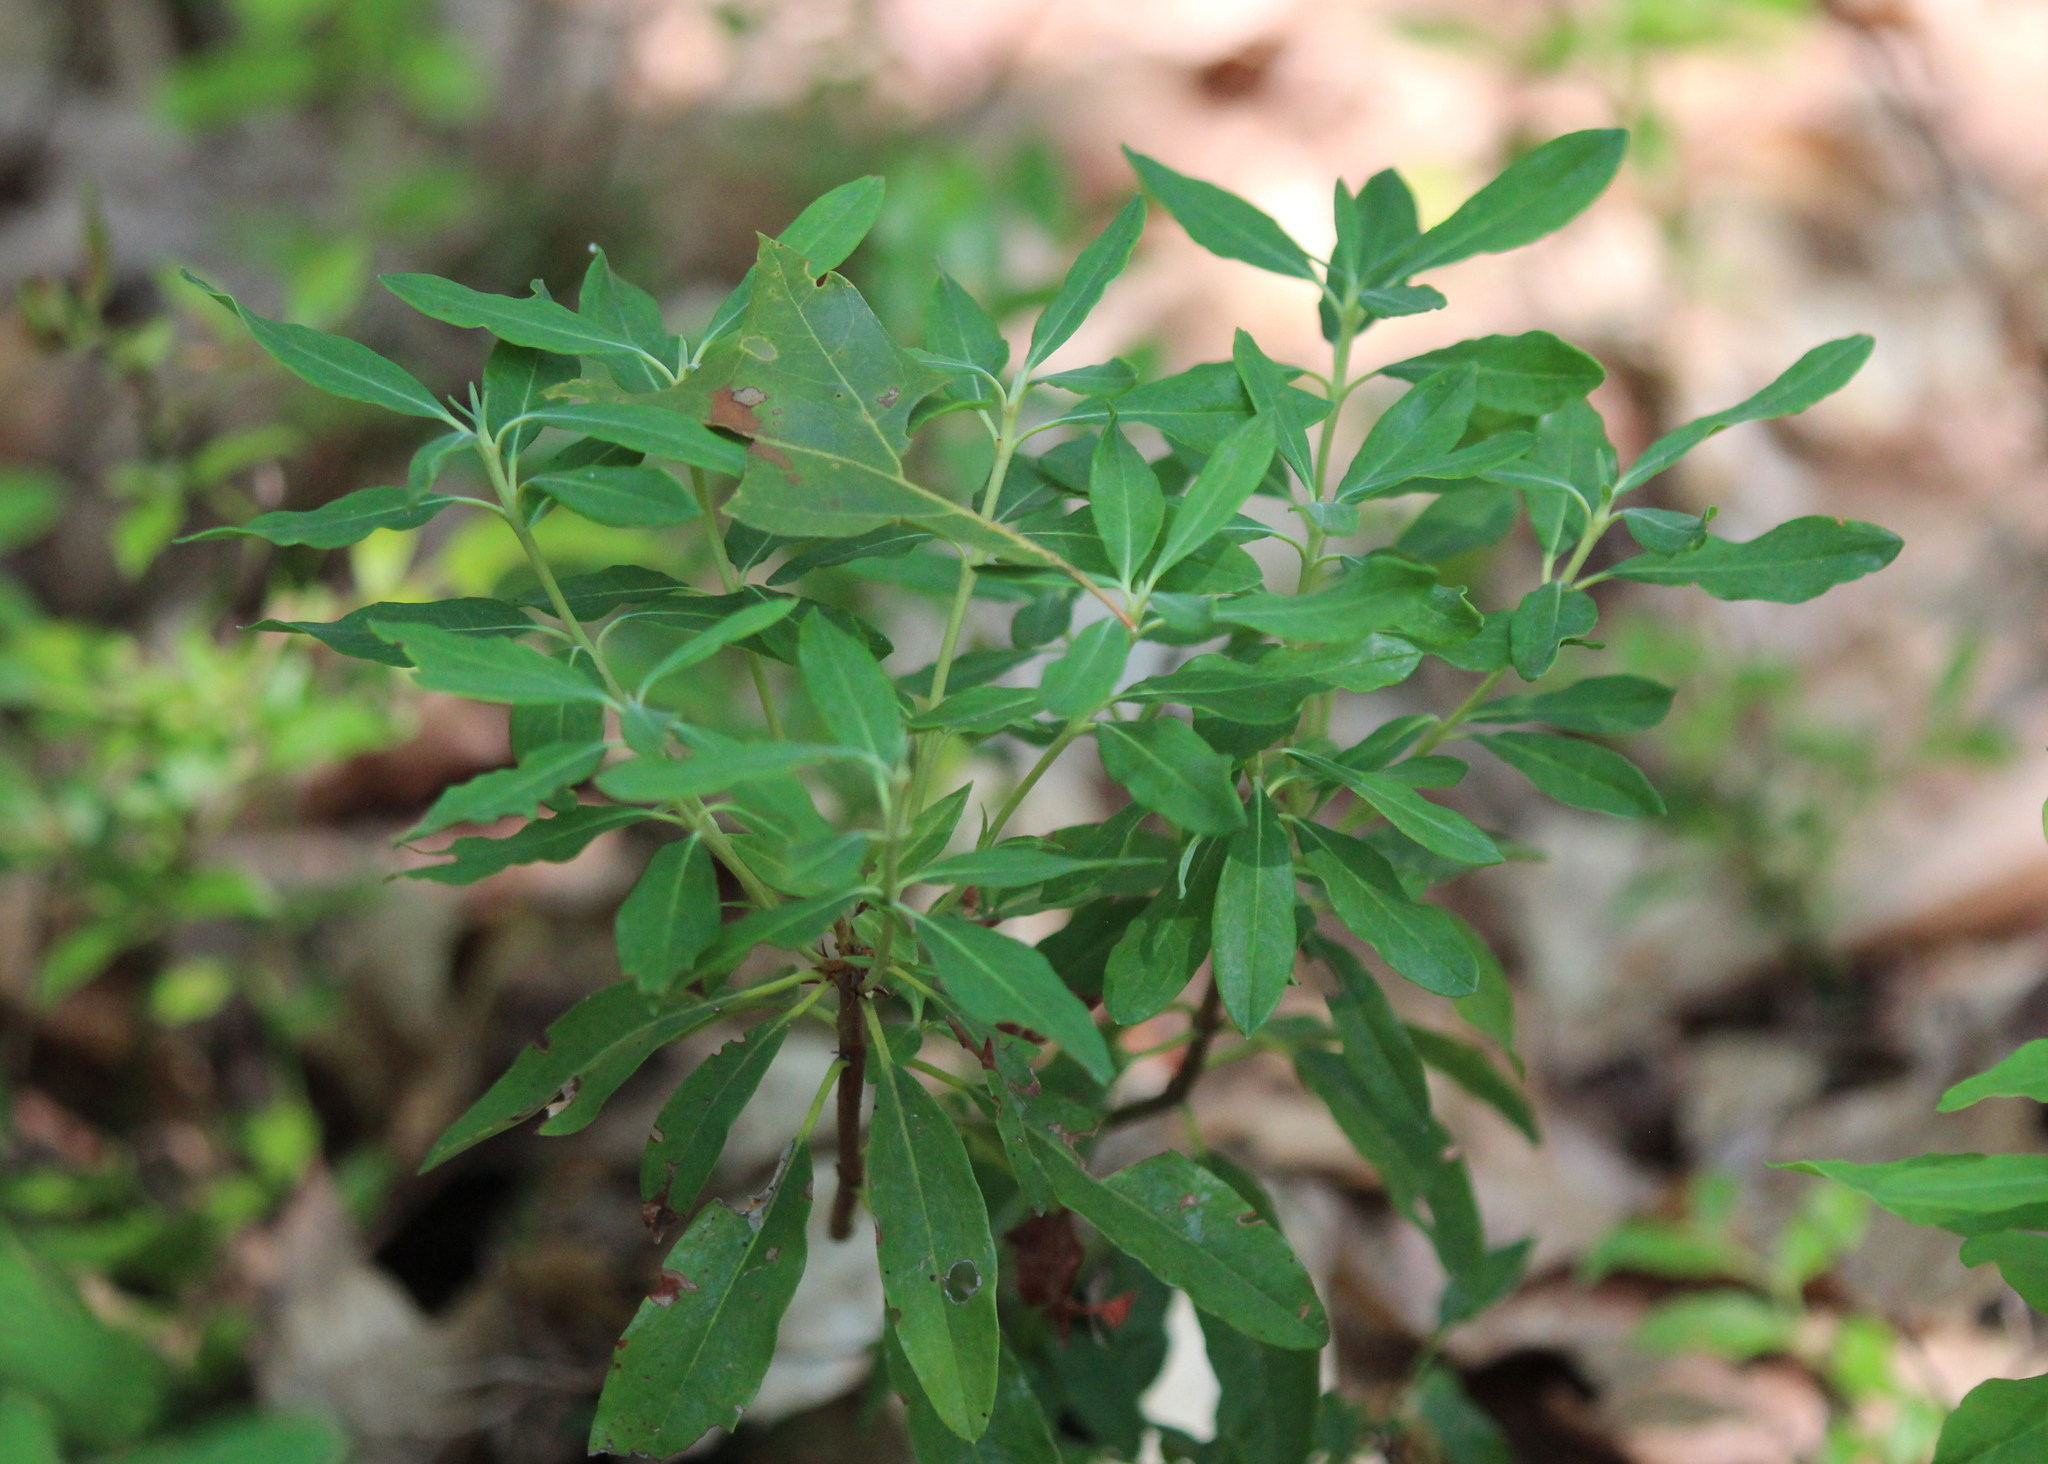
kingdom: Plantae
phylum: Tracheophyta
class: Magnoliopsida
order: Ericales
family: Ericaceae
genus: Kalmia
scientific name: Kalmia angustifolia
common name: Sheep-laurel
